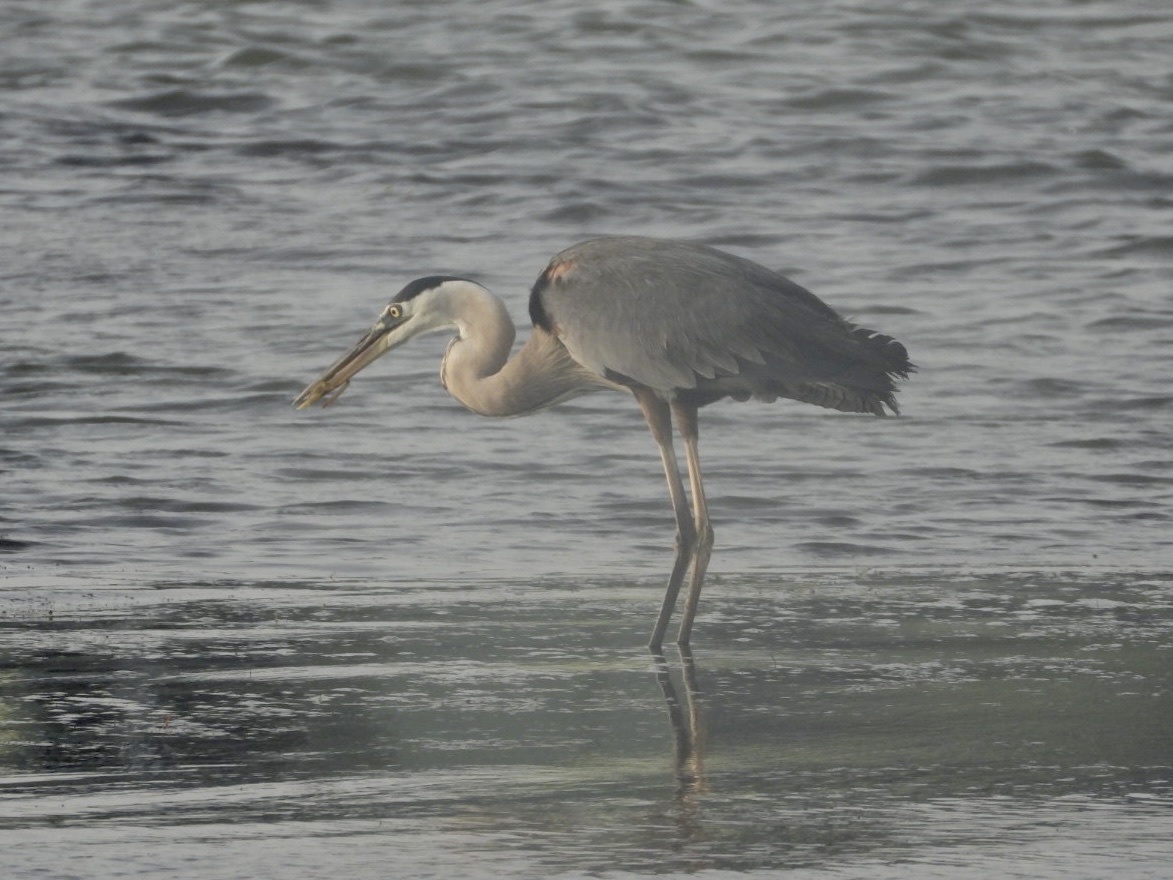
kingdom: Animalia
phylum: Chordata
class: Aves
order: Pelecaniformes
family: Ardeidae
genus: Ardea
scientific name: Ardea herodias
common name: Great blue heron
